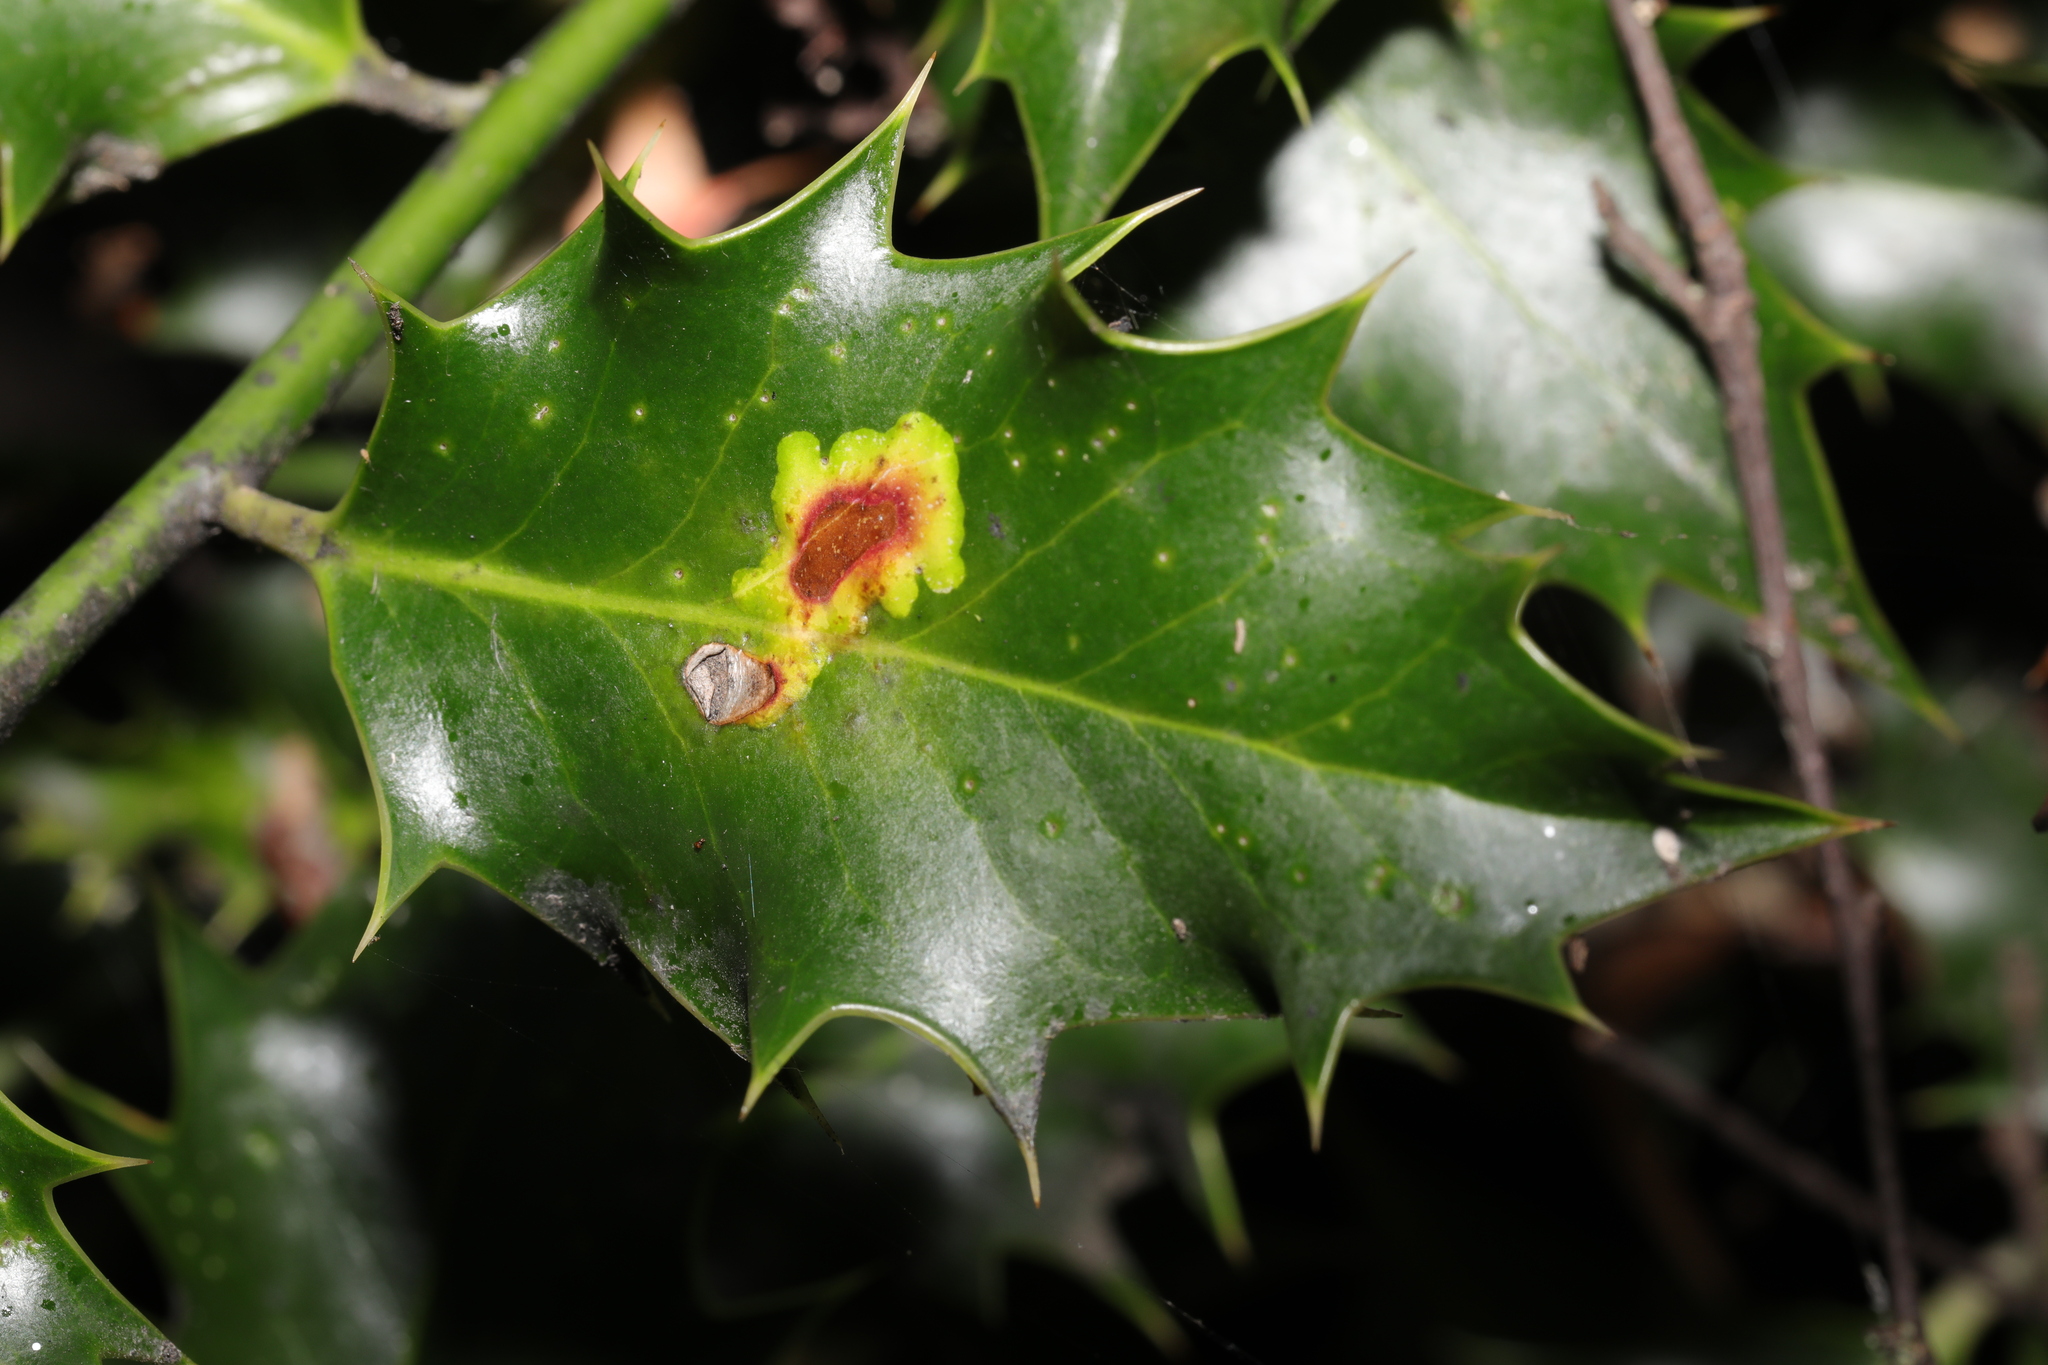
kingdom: Animalia
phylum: Arthropoda
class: Insecta
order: Diptera
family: Agromyzidae
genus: Phytomyza
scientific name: Phytomyza ilicis
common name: Holly leafminer
